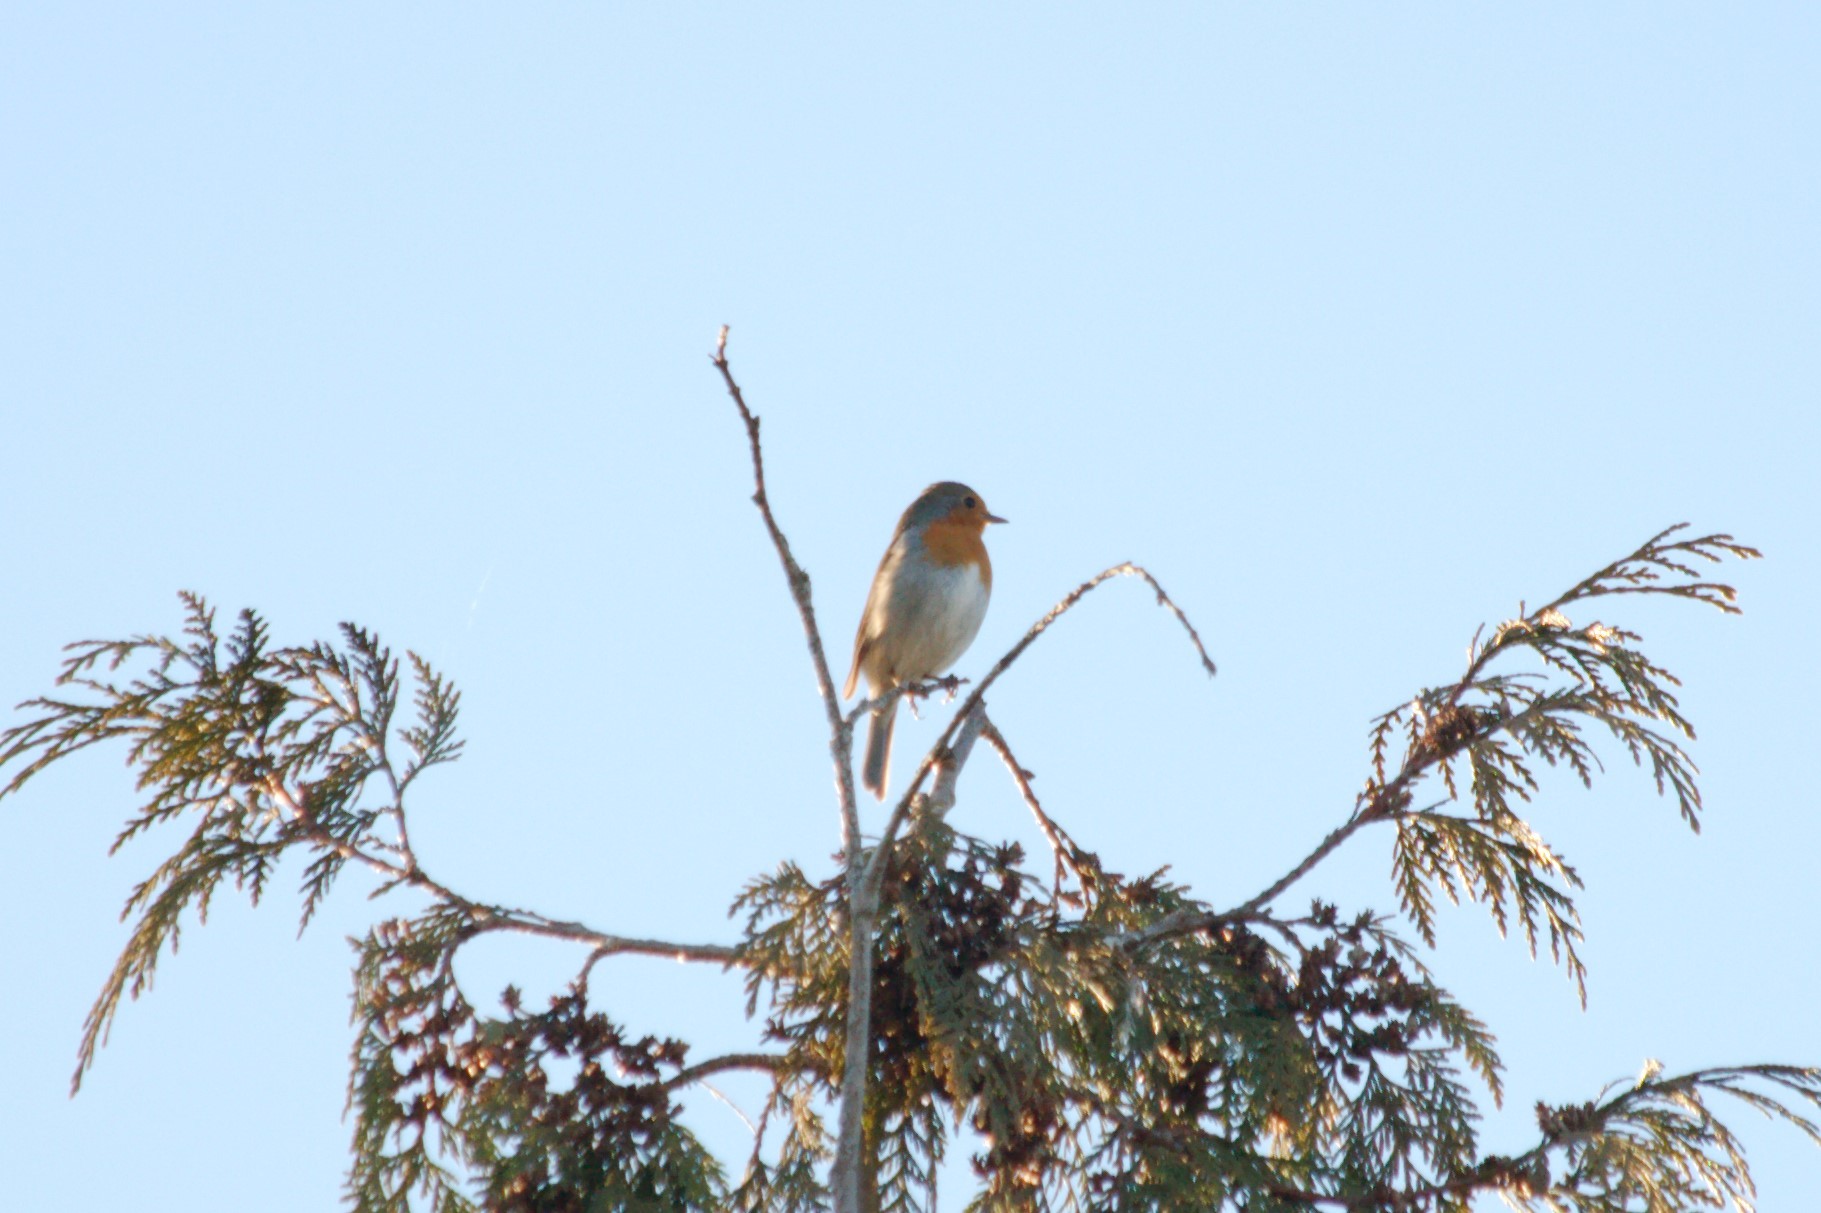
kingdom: Animalia
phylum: Chordata
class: Aves
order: Passeriformes
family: Muscicapidae
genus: Erithacus
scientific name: Erithacus rubecula
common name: European robin
